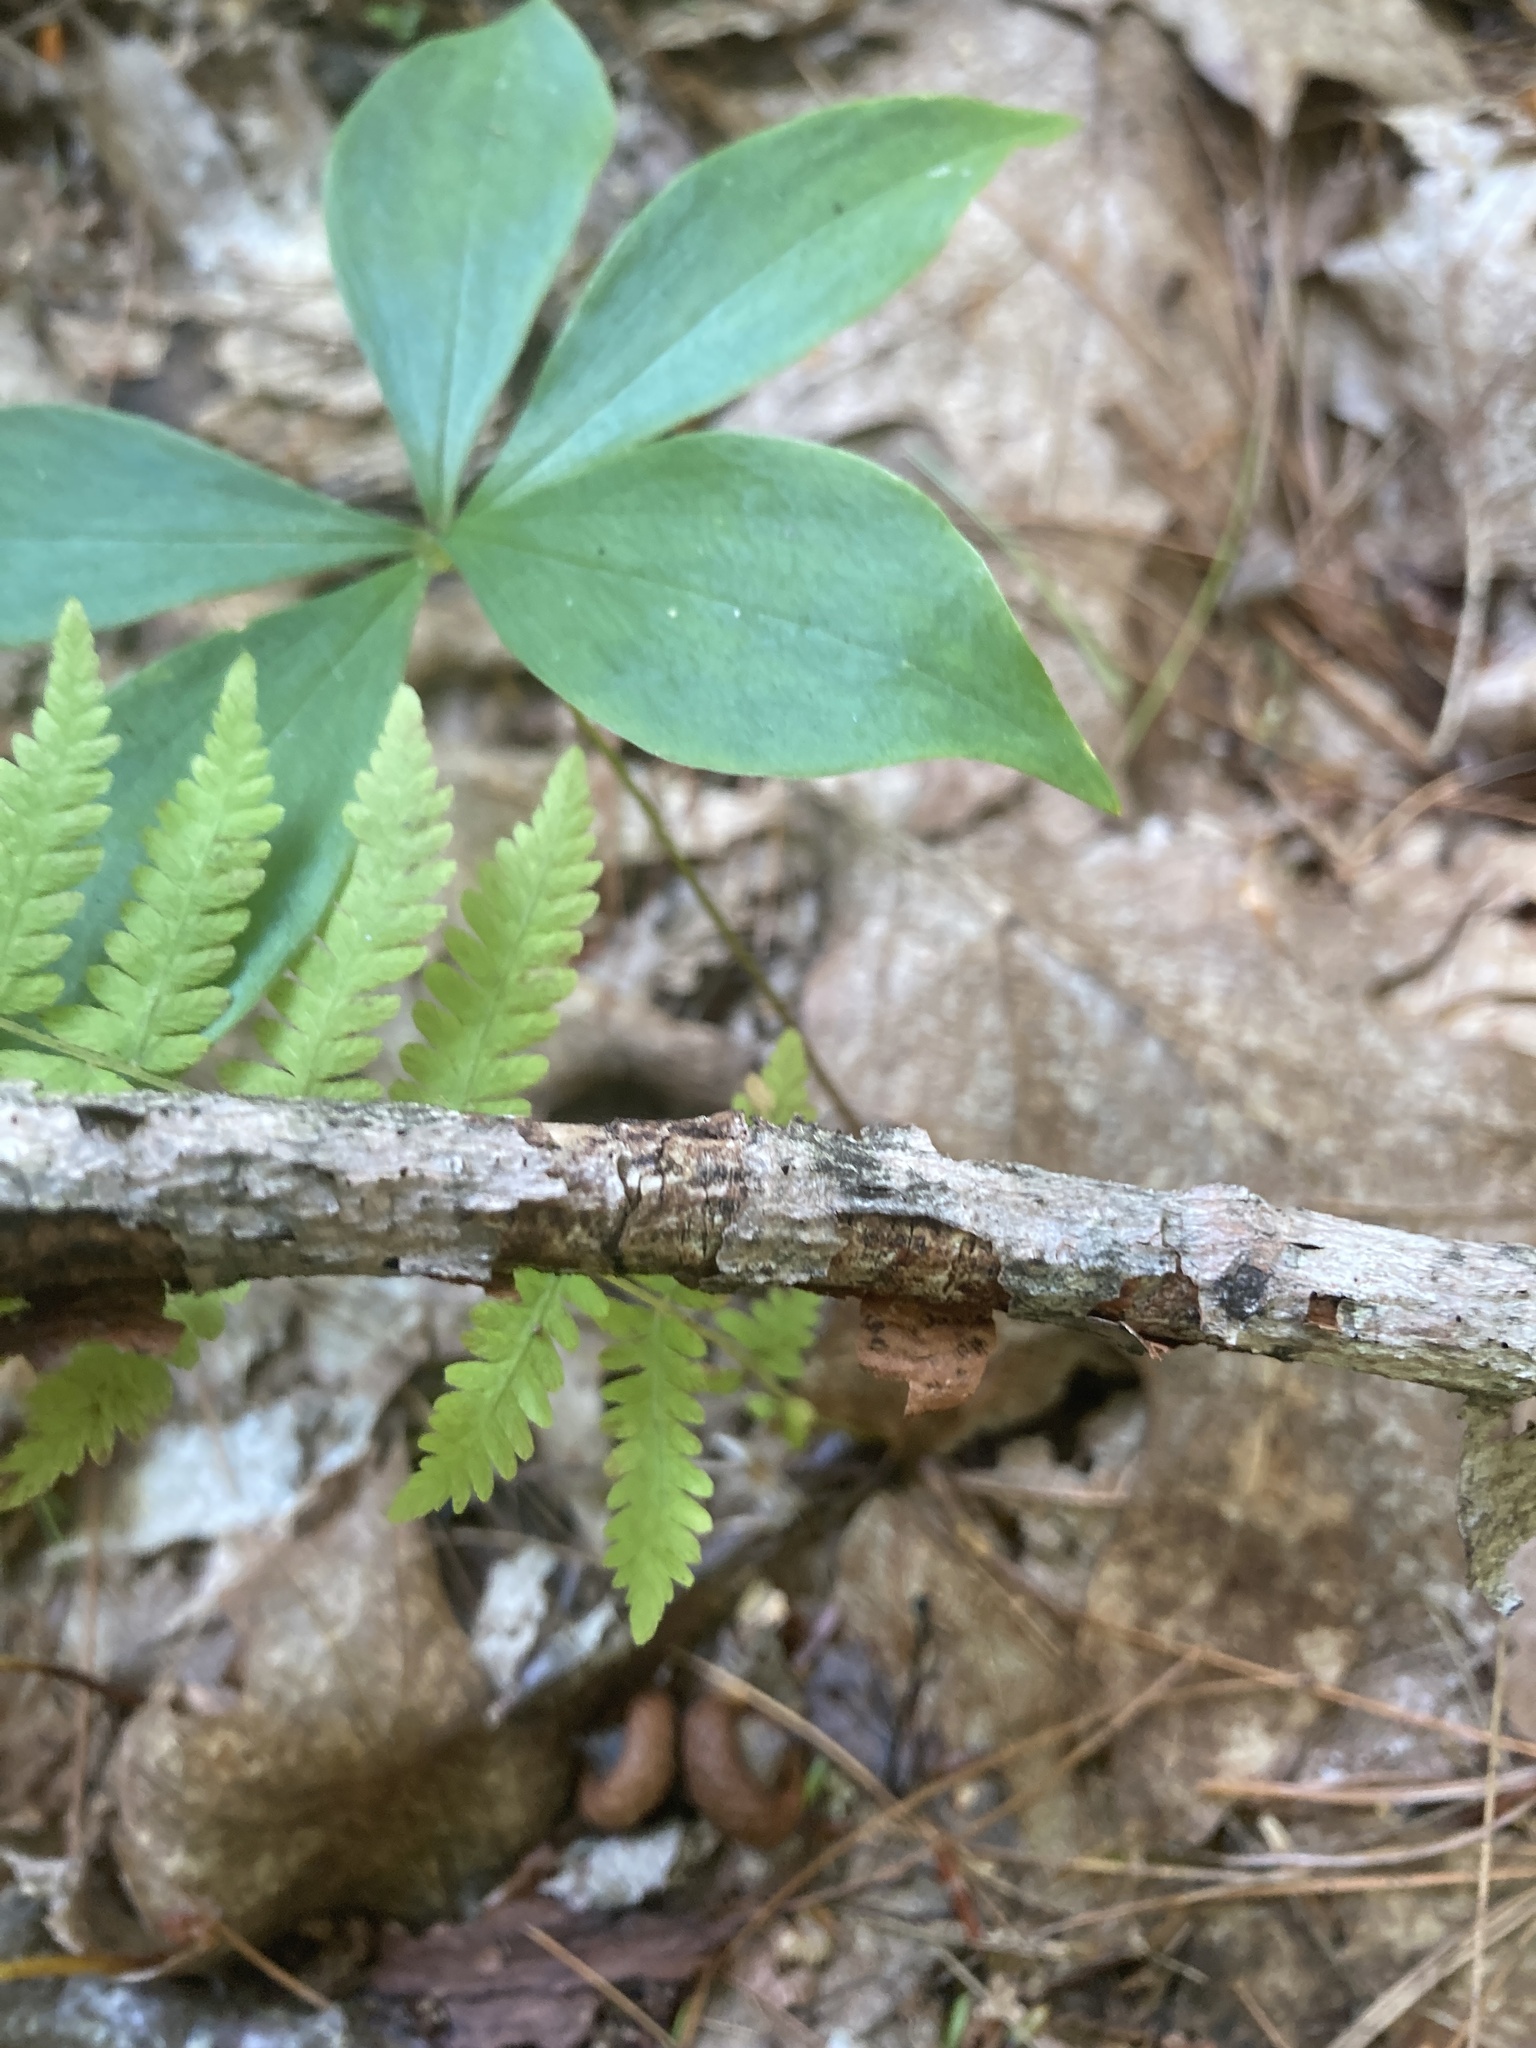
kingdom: Plantae
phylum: Tracheophyta
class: Liliopsida
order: Liliales
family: Liliaceae
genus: Medeola
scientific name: Medeola virginiana
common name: Indian cucumber-root
